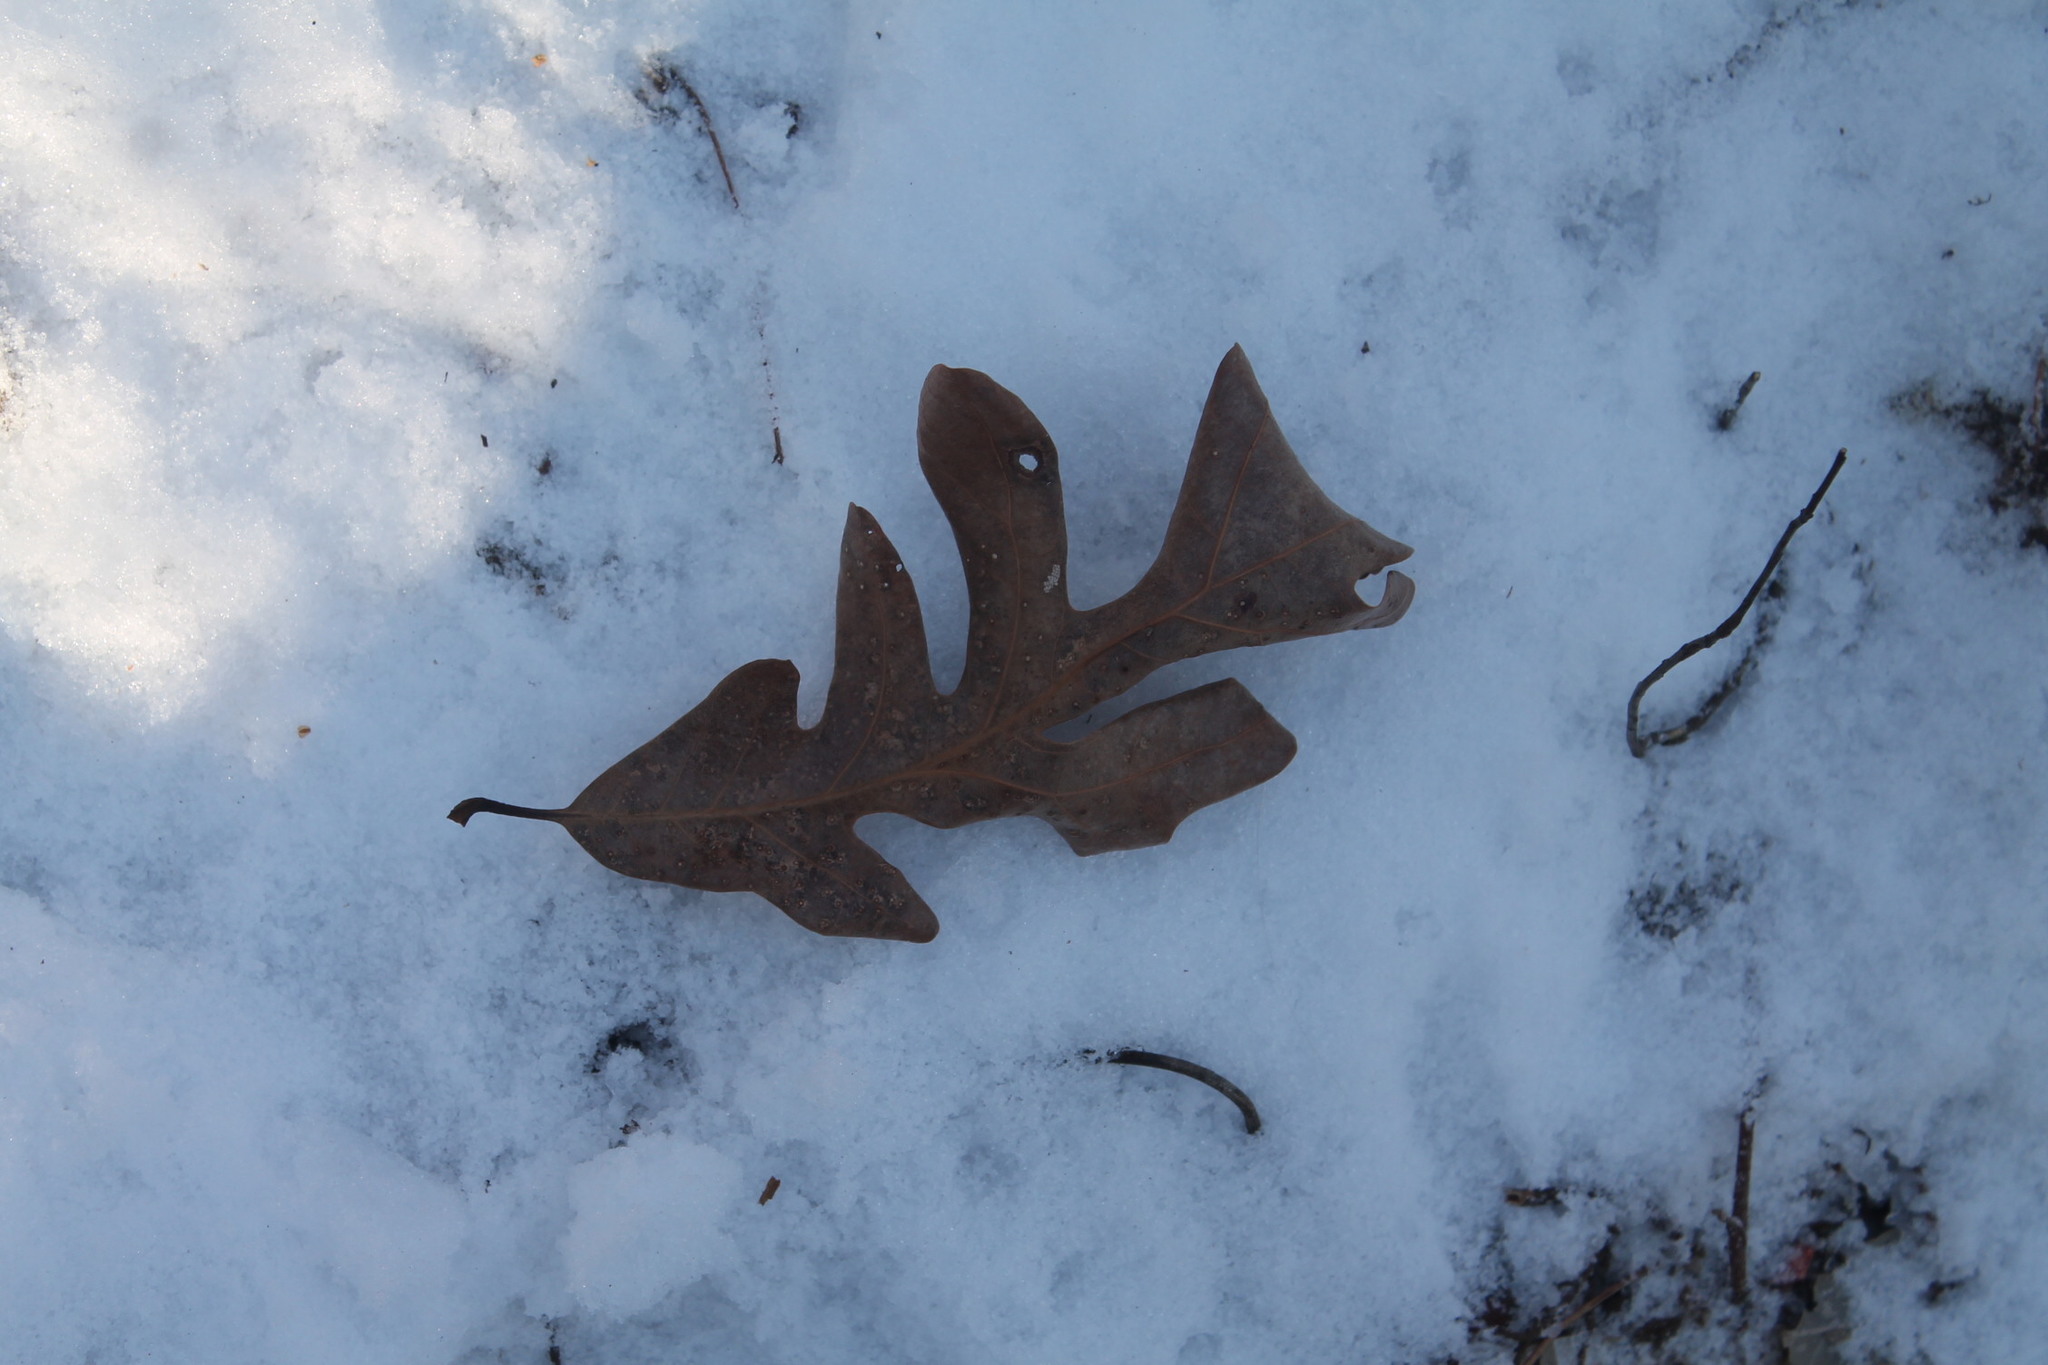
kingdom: Plantae
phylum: Tracheophyta
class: Magnoliopsida
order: Fagales
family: Fagaceae
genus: Quercus
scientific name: Quercus alba
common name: White oak
